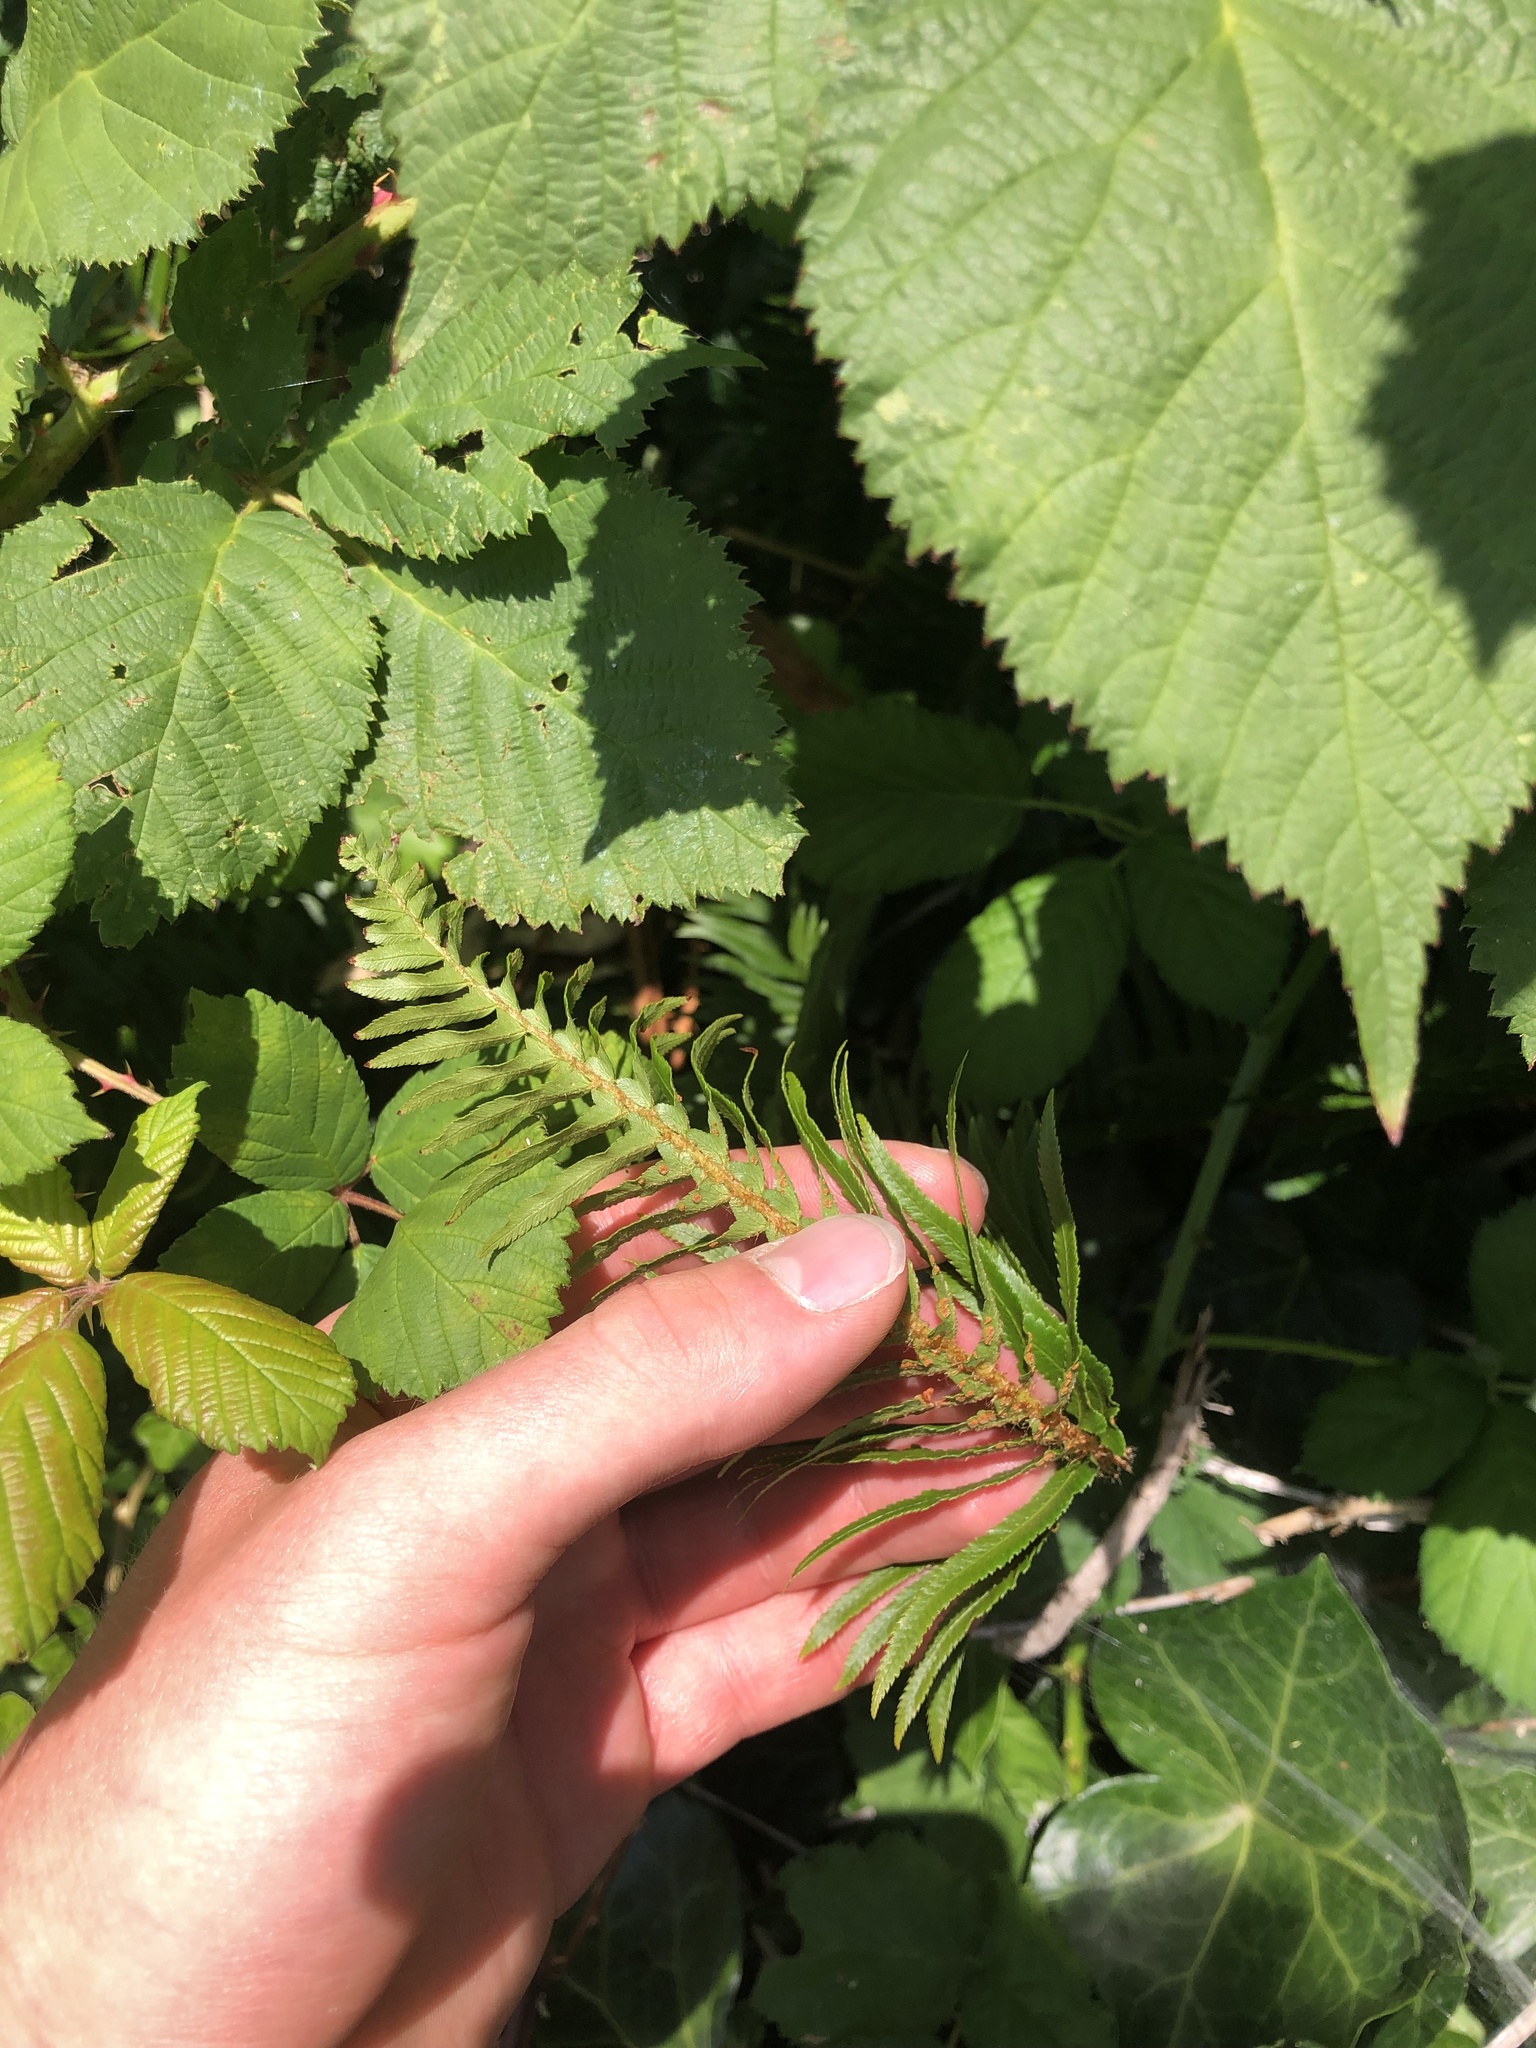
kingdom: Plantae
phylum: Tracheophyta
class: Polypodiopsida
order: Polypodiales
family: Dryopteridaceae
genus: Polystichum
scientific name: Polystichum munitum
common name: Western sword-fern
